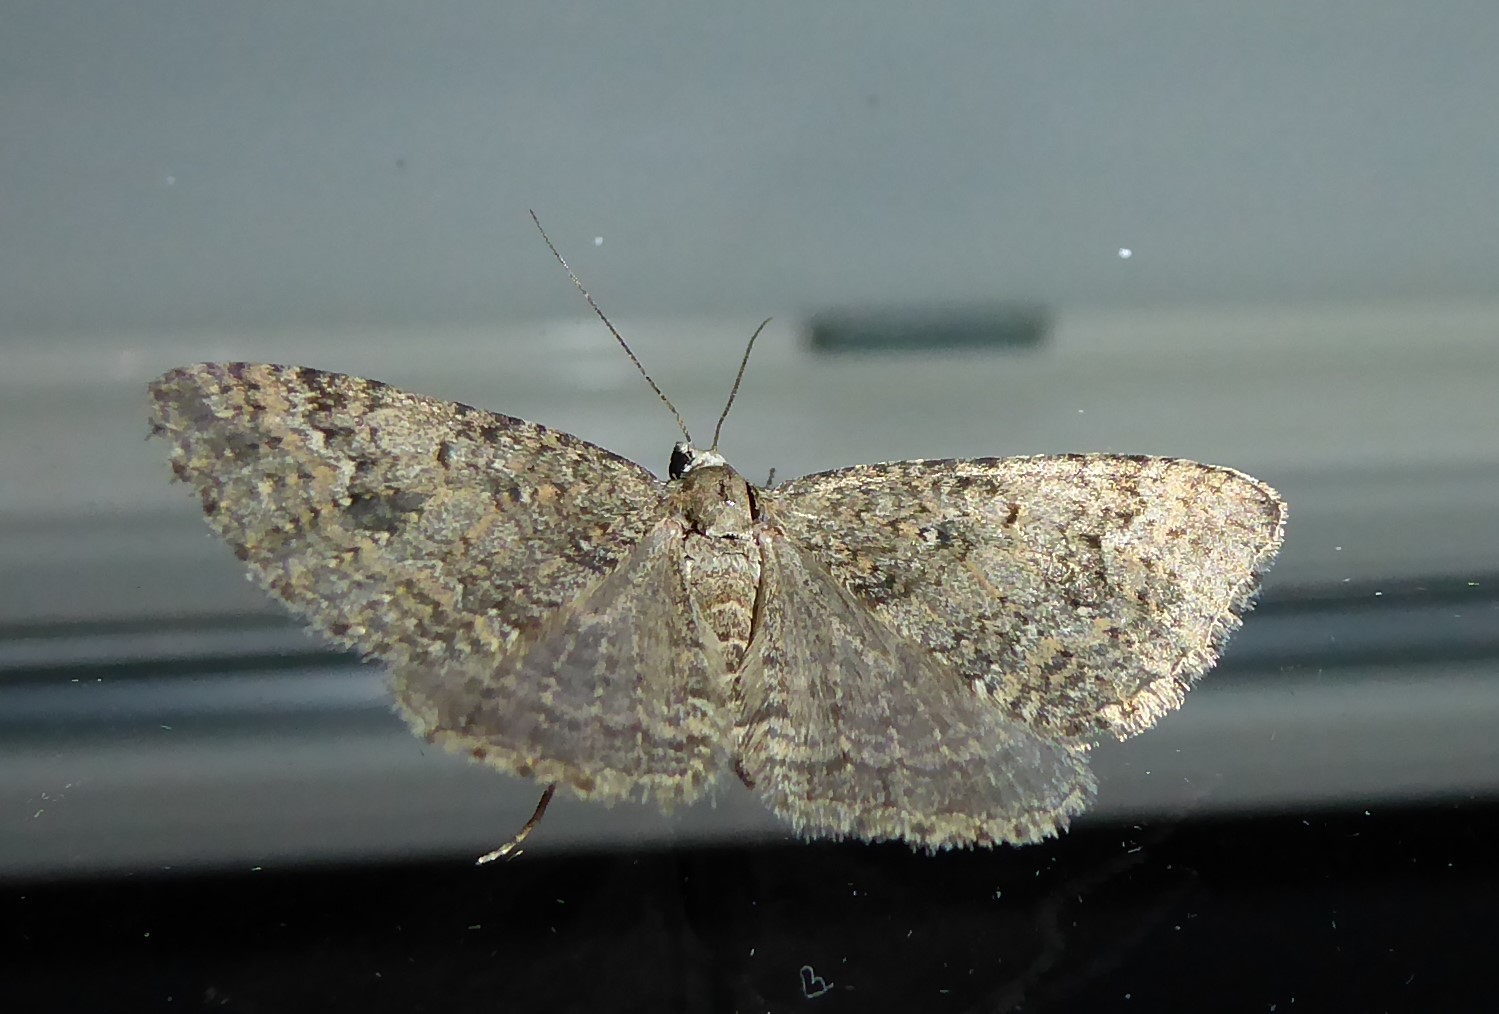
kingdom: Animalia
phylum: Arthropoda
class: Insecta
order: Lepidoptera
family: Geometridae
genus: Helastia
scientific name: Helastia corcularia
